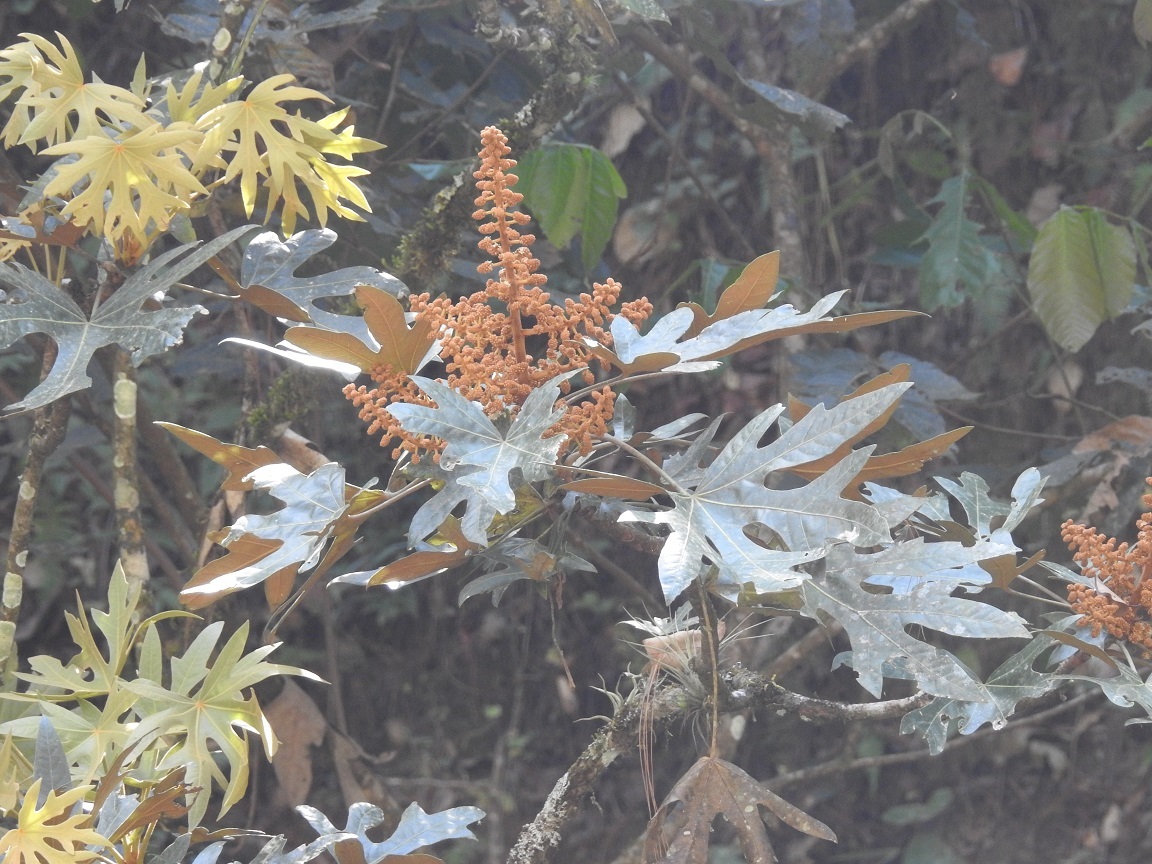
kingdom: Plantae
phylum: Tracheophyta
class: Magnoliopsida
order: Apiales
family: Araliaceae
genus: Oreopanax
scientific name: Oreopanax geminatus
